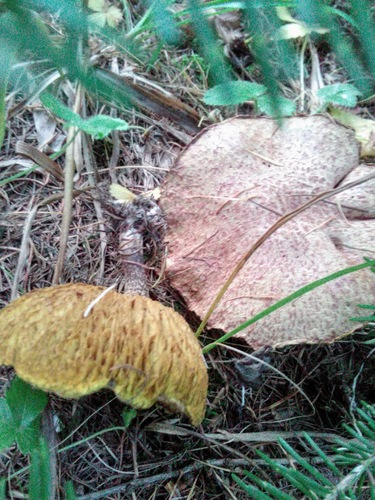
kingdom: Fungi
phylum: Basidiomycota
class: Agaricomycetes
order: Boletales
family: Suillaceae
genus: Suillus
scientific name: Suillus
